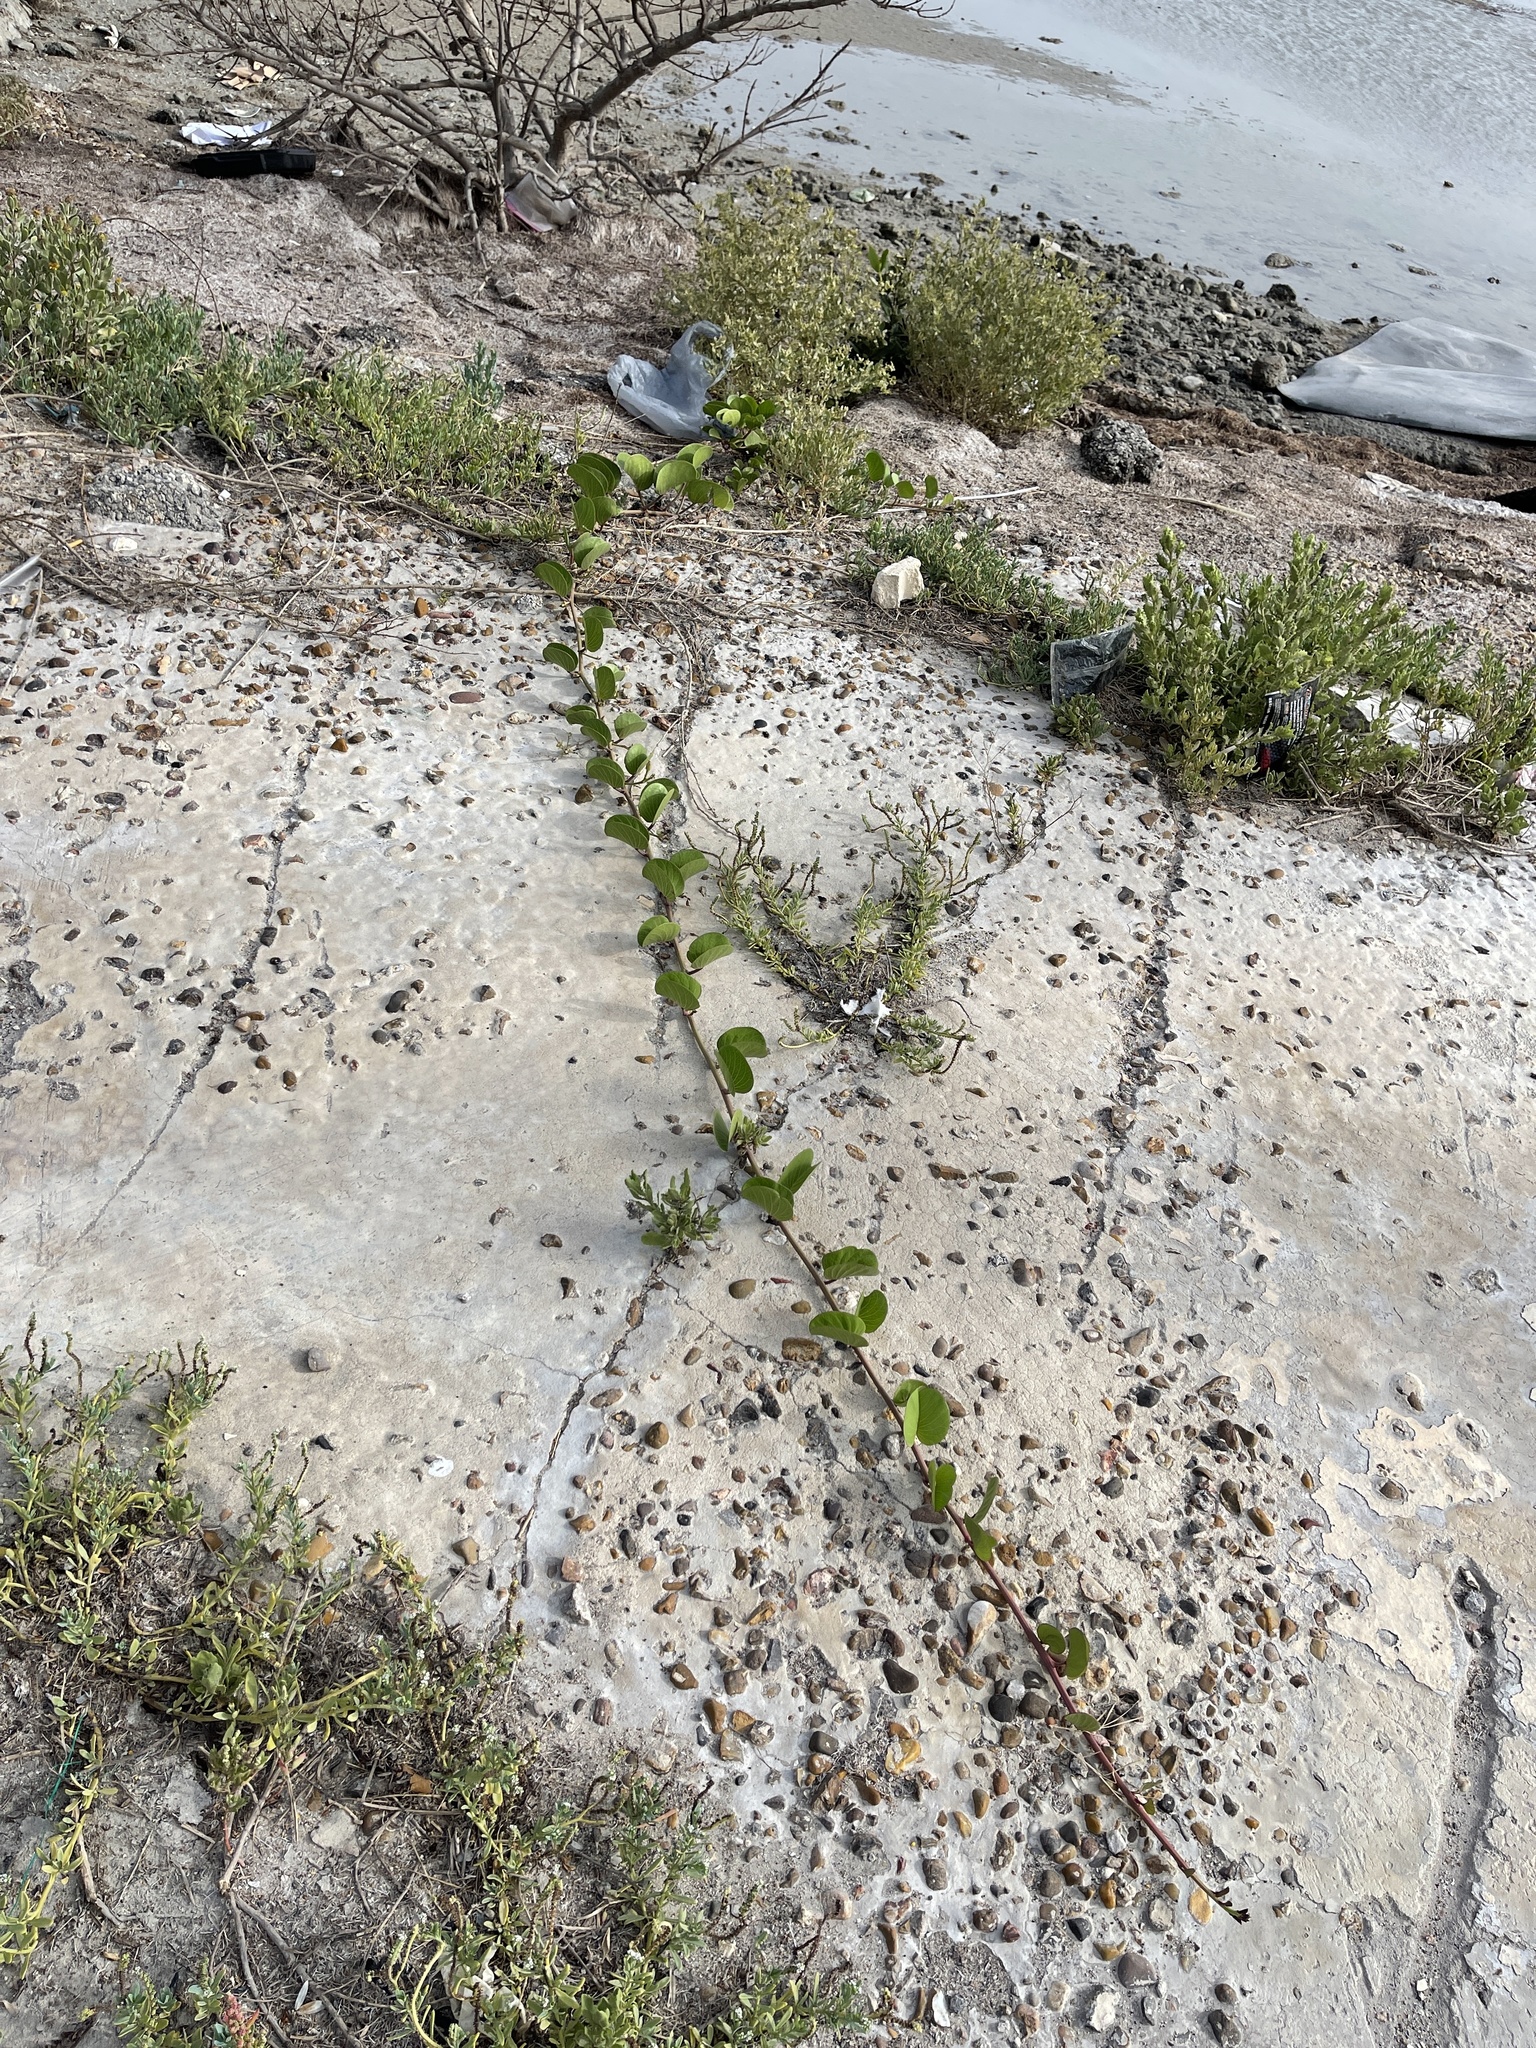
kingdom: Plantae
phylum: Tracheophyta
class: Magnoliopsida
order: Solanales
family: Convolvulaceae
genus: Ipomoea
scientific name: Ipomoea pes-caprae
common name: Beach morning glory
